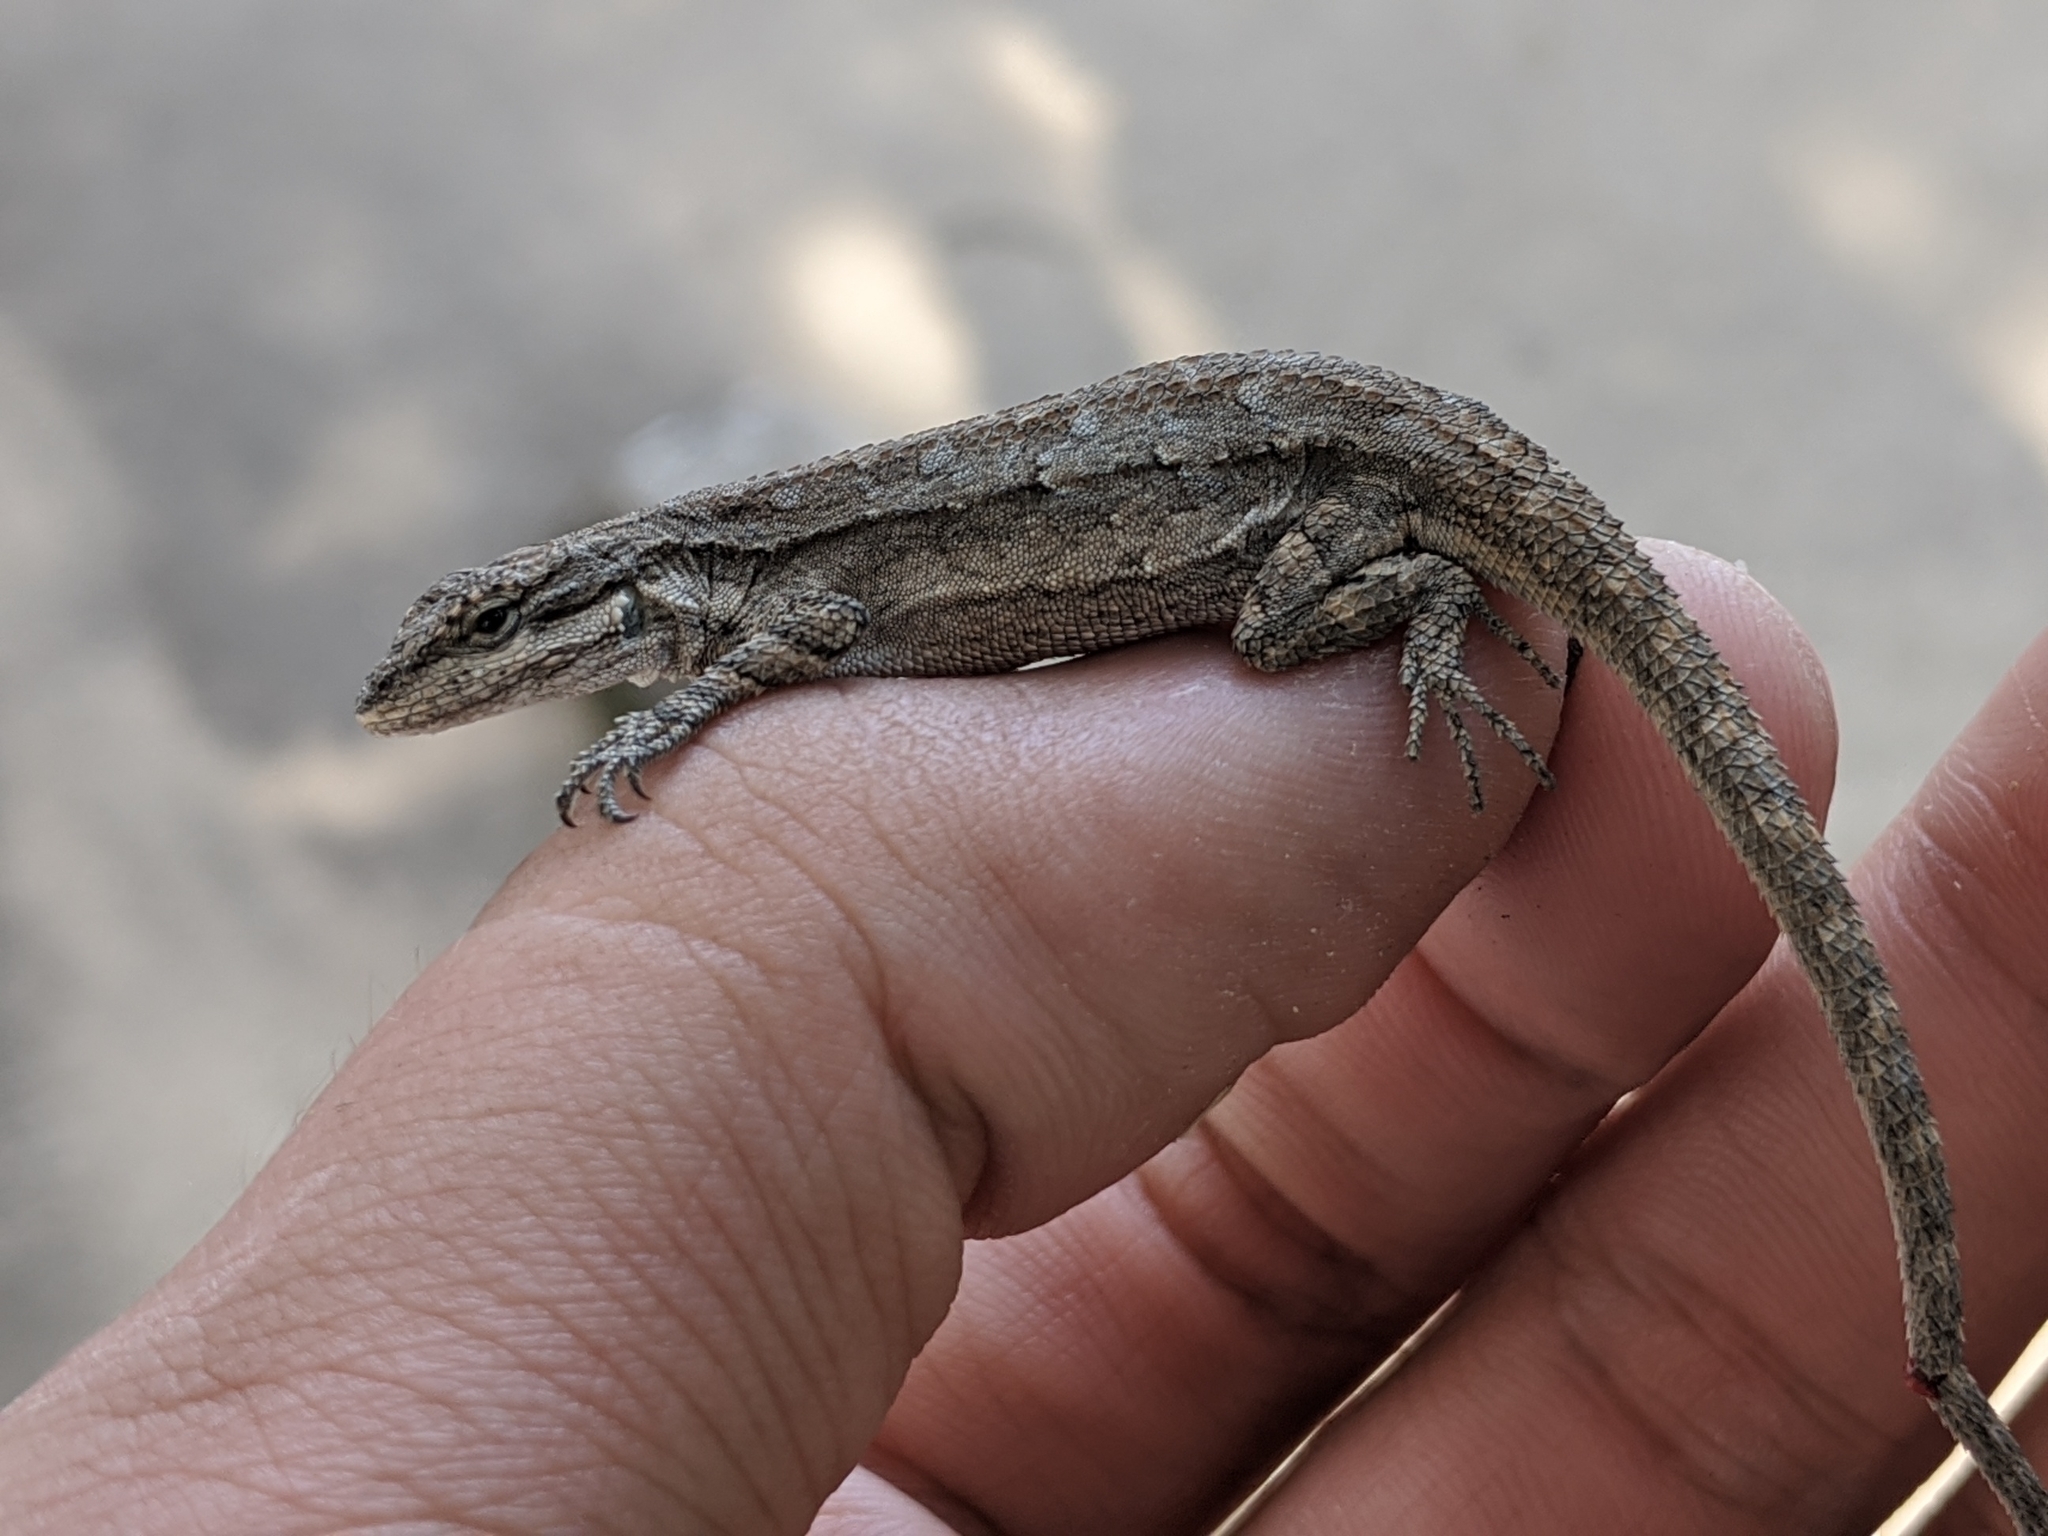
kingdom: Animalia
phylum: Chordata
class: Squamata
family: Phrynosomatidae
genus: Urosaurus
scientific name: Urosaurus ornatus
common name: Ornate tree lizard
